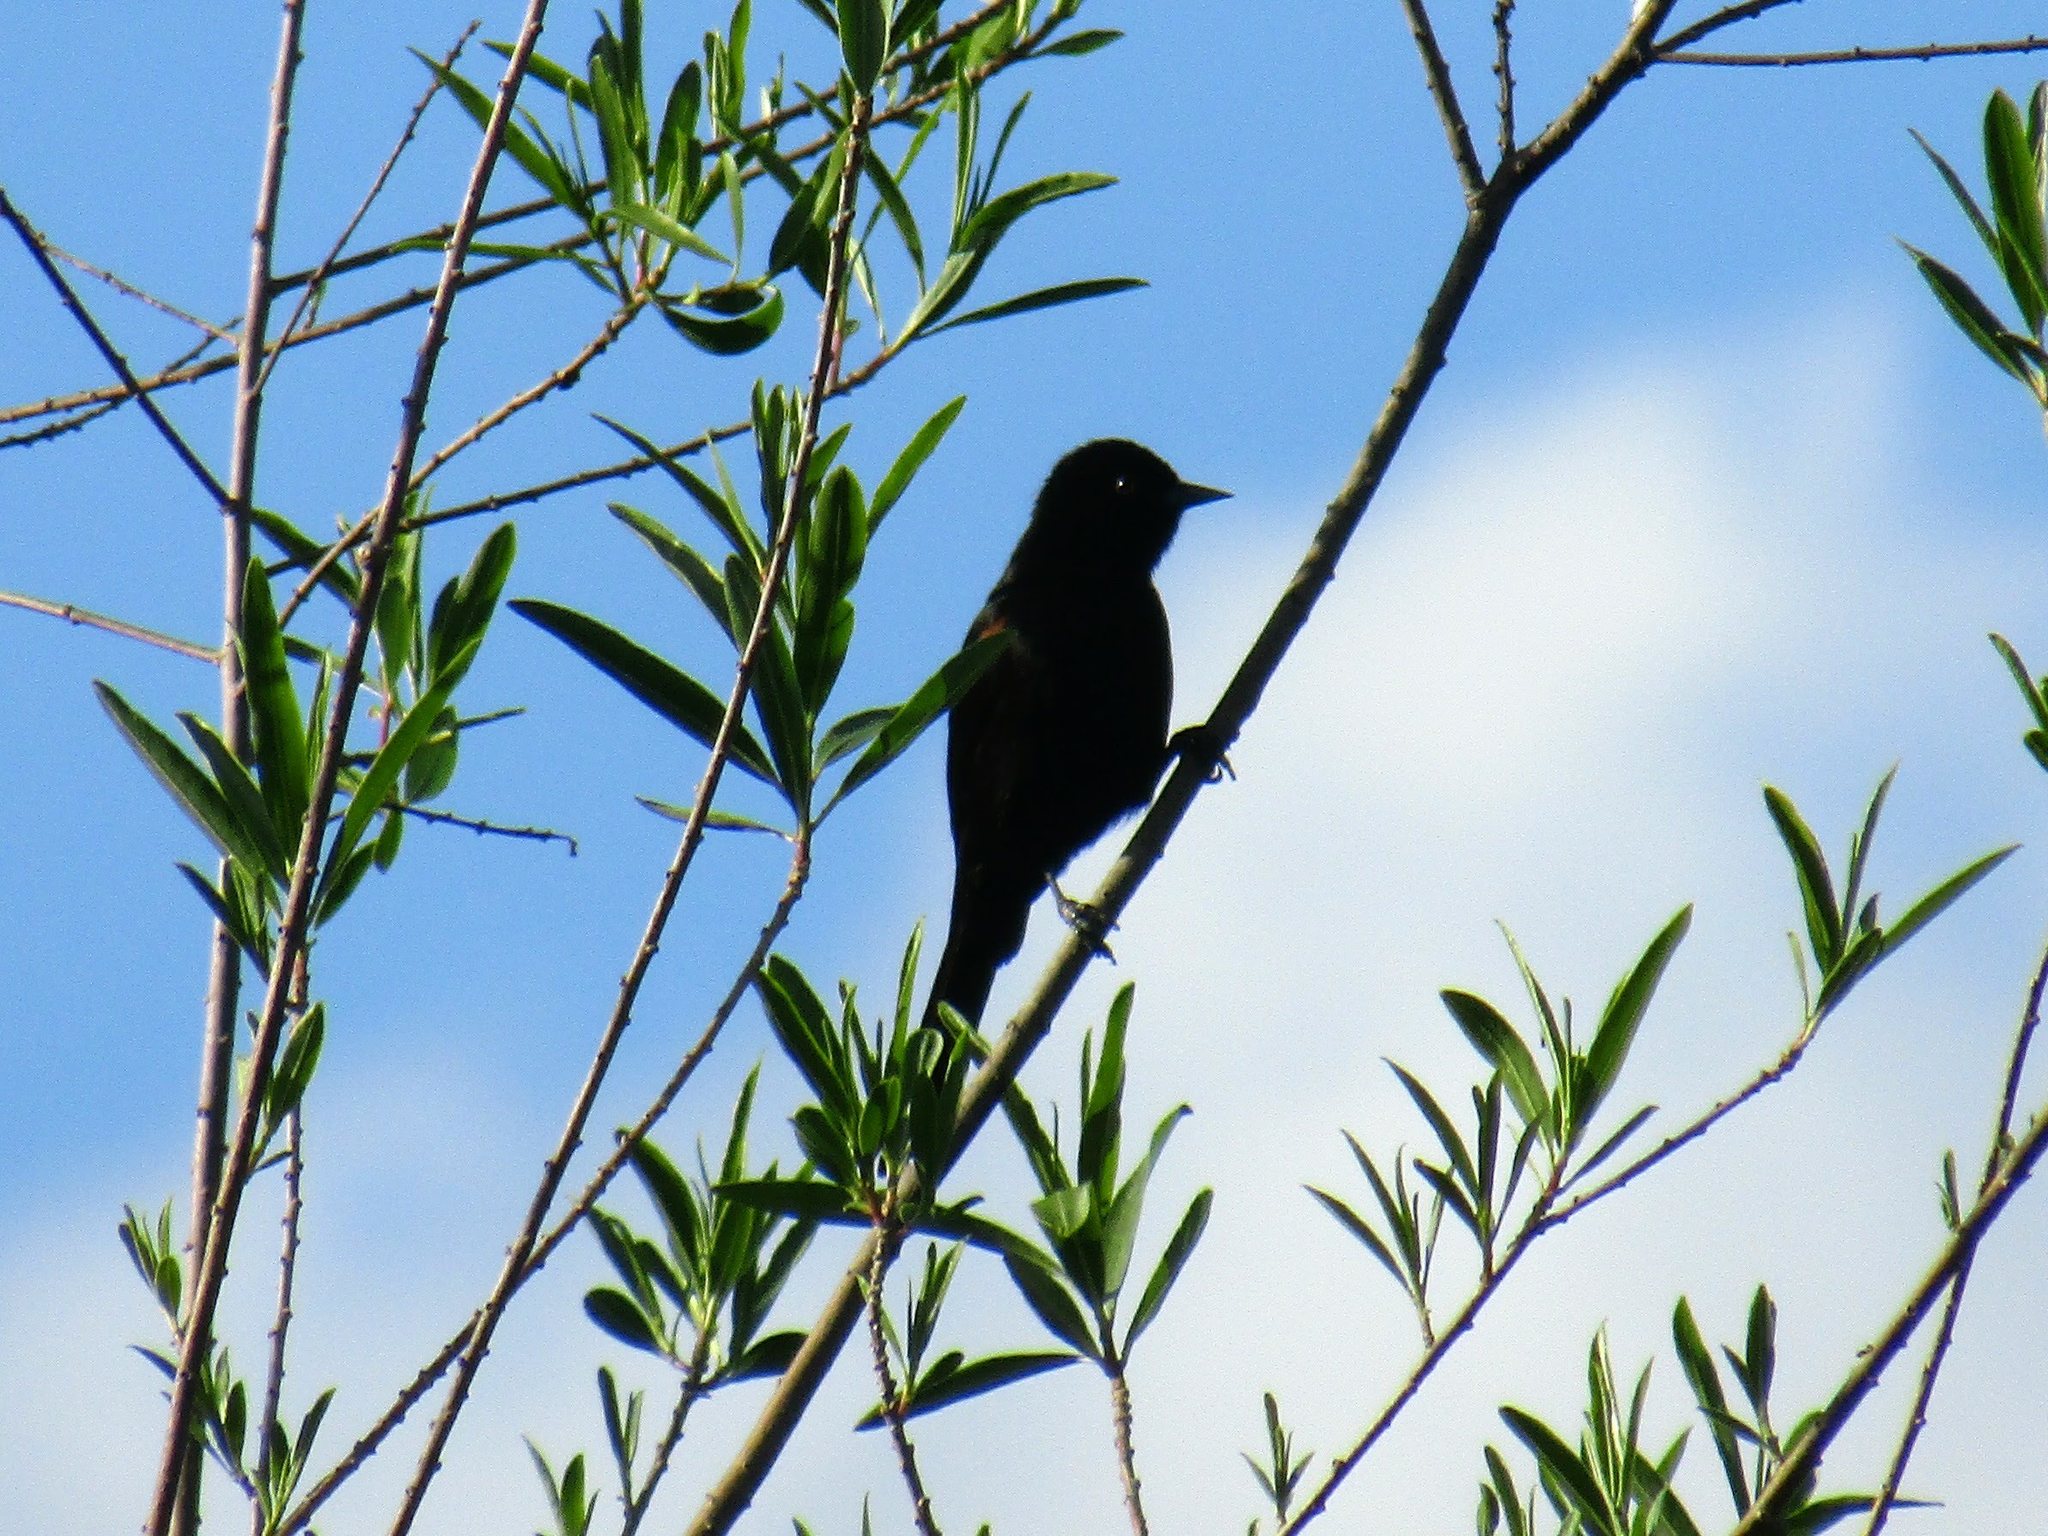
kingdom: Animalia
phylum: Chordata
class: Aves
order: Passeriformes
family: Icteridae
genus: Icterus
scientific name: Icterus cayanensis
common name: Epaulet oriole
